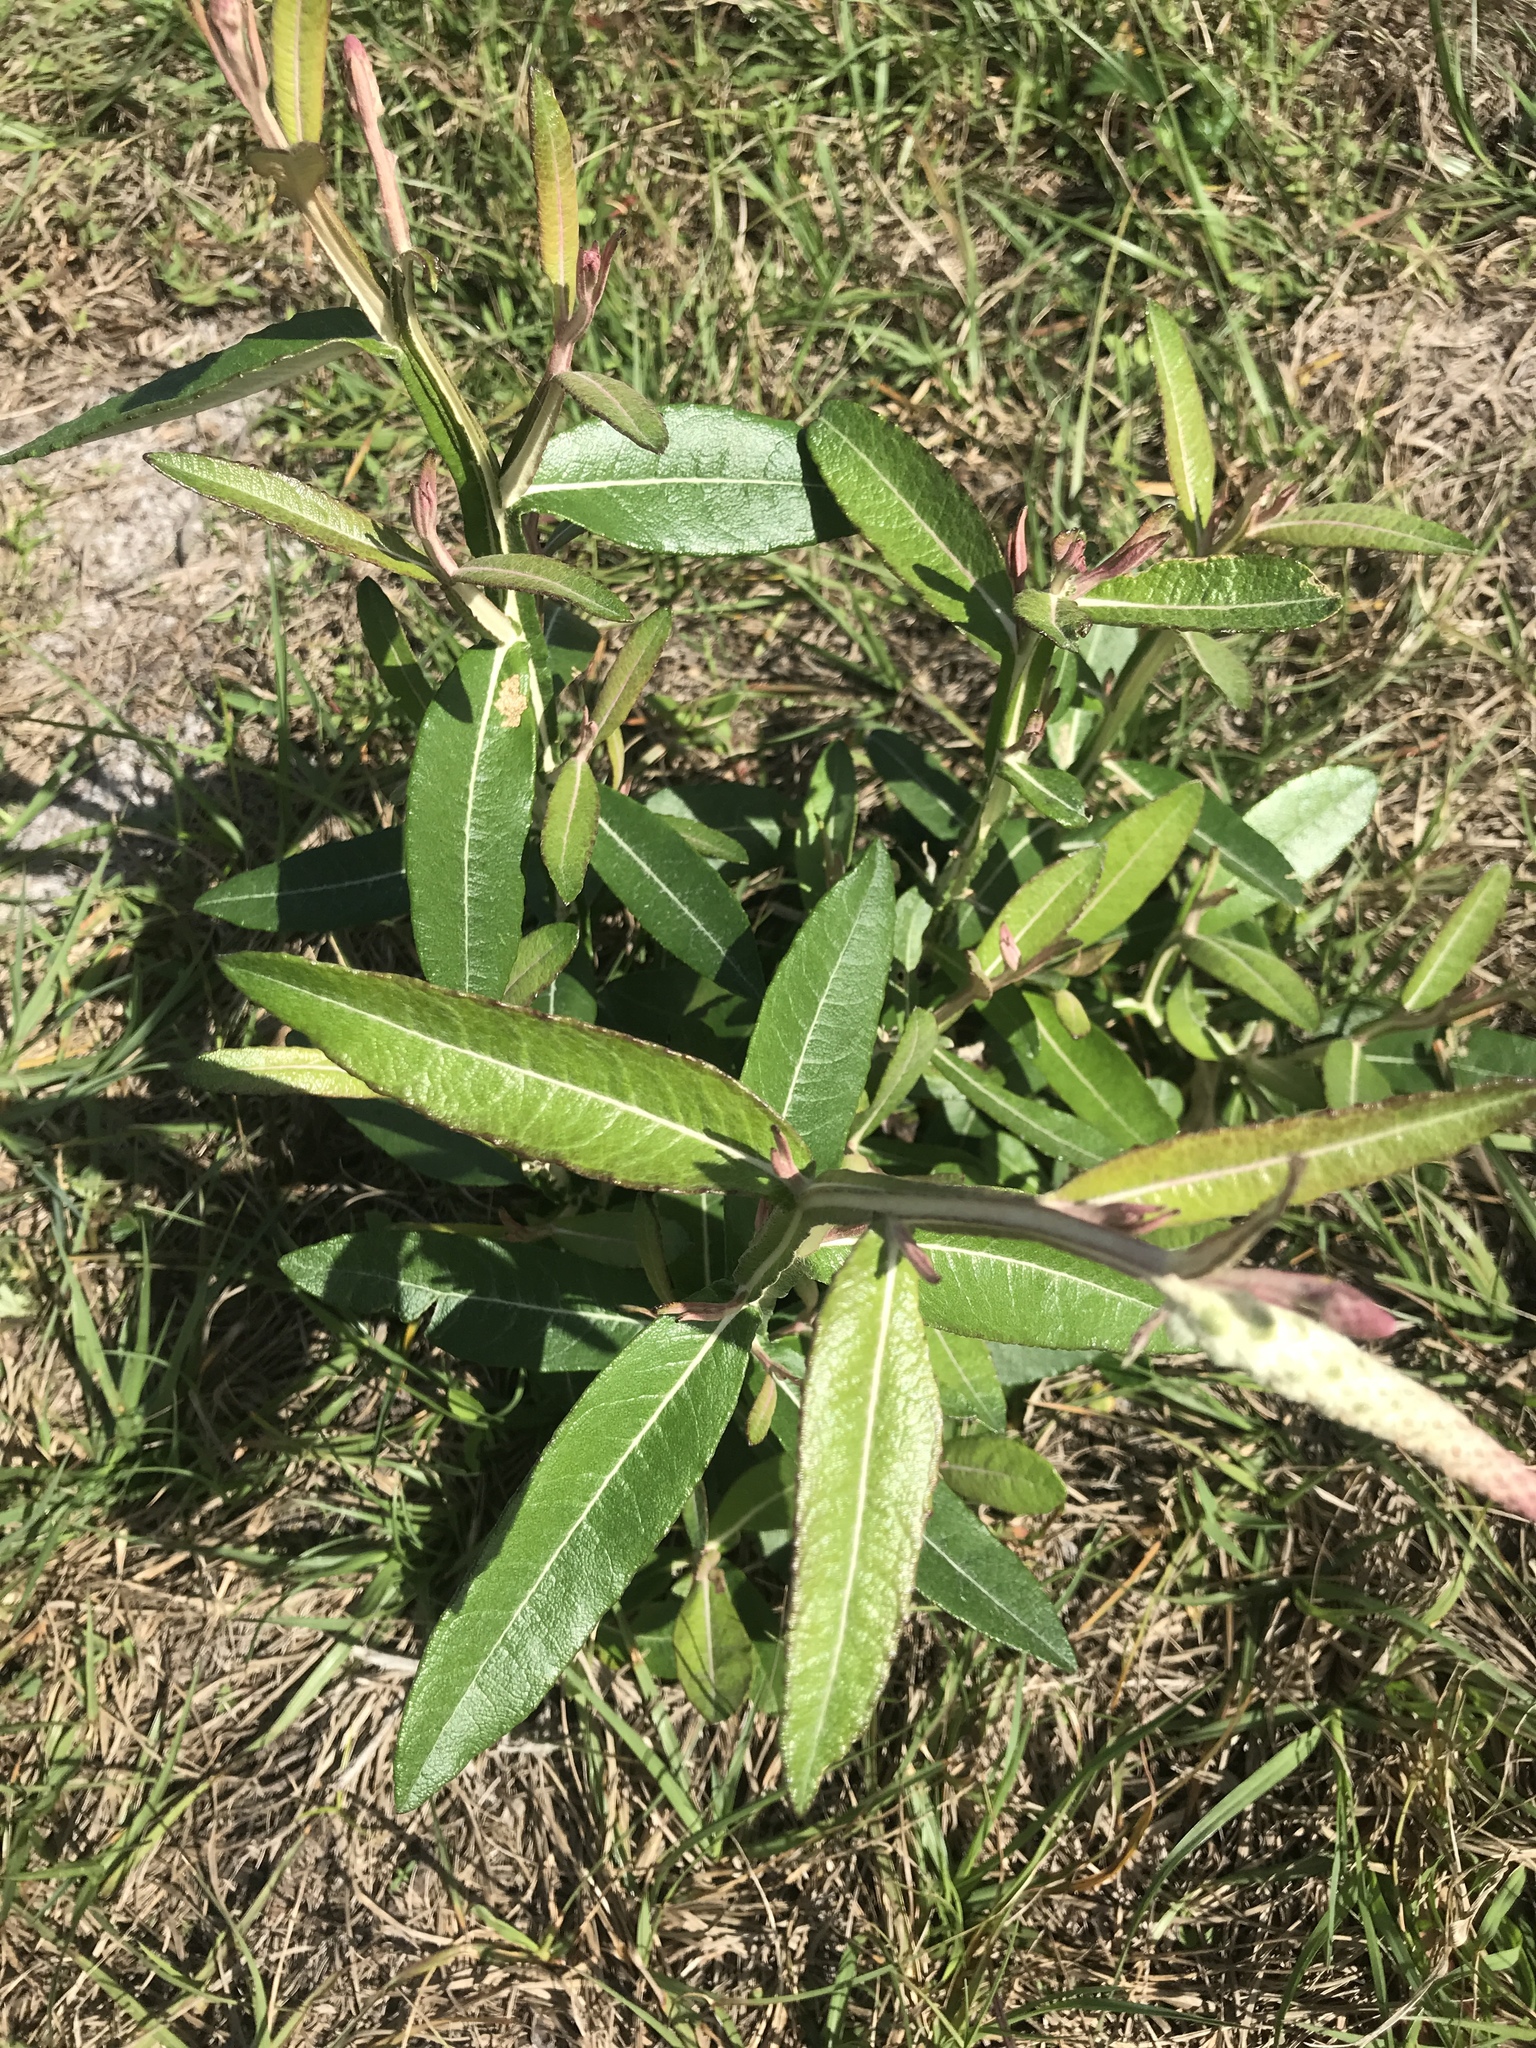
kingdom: Plantae
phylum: Tracheophyta
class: Magnoliopsida
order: Asterales
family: Asteraceae
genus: Pterocaulon
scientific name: Pterocaulon pycnostachyum
